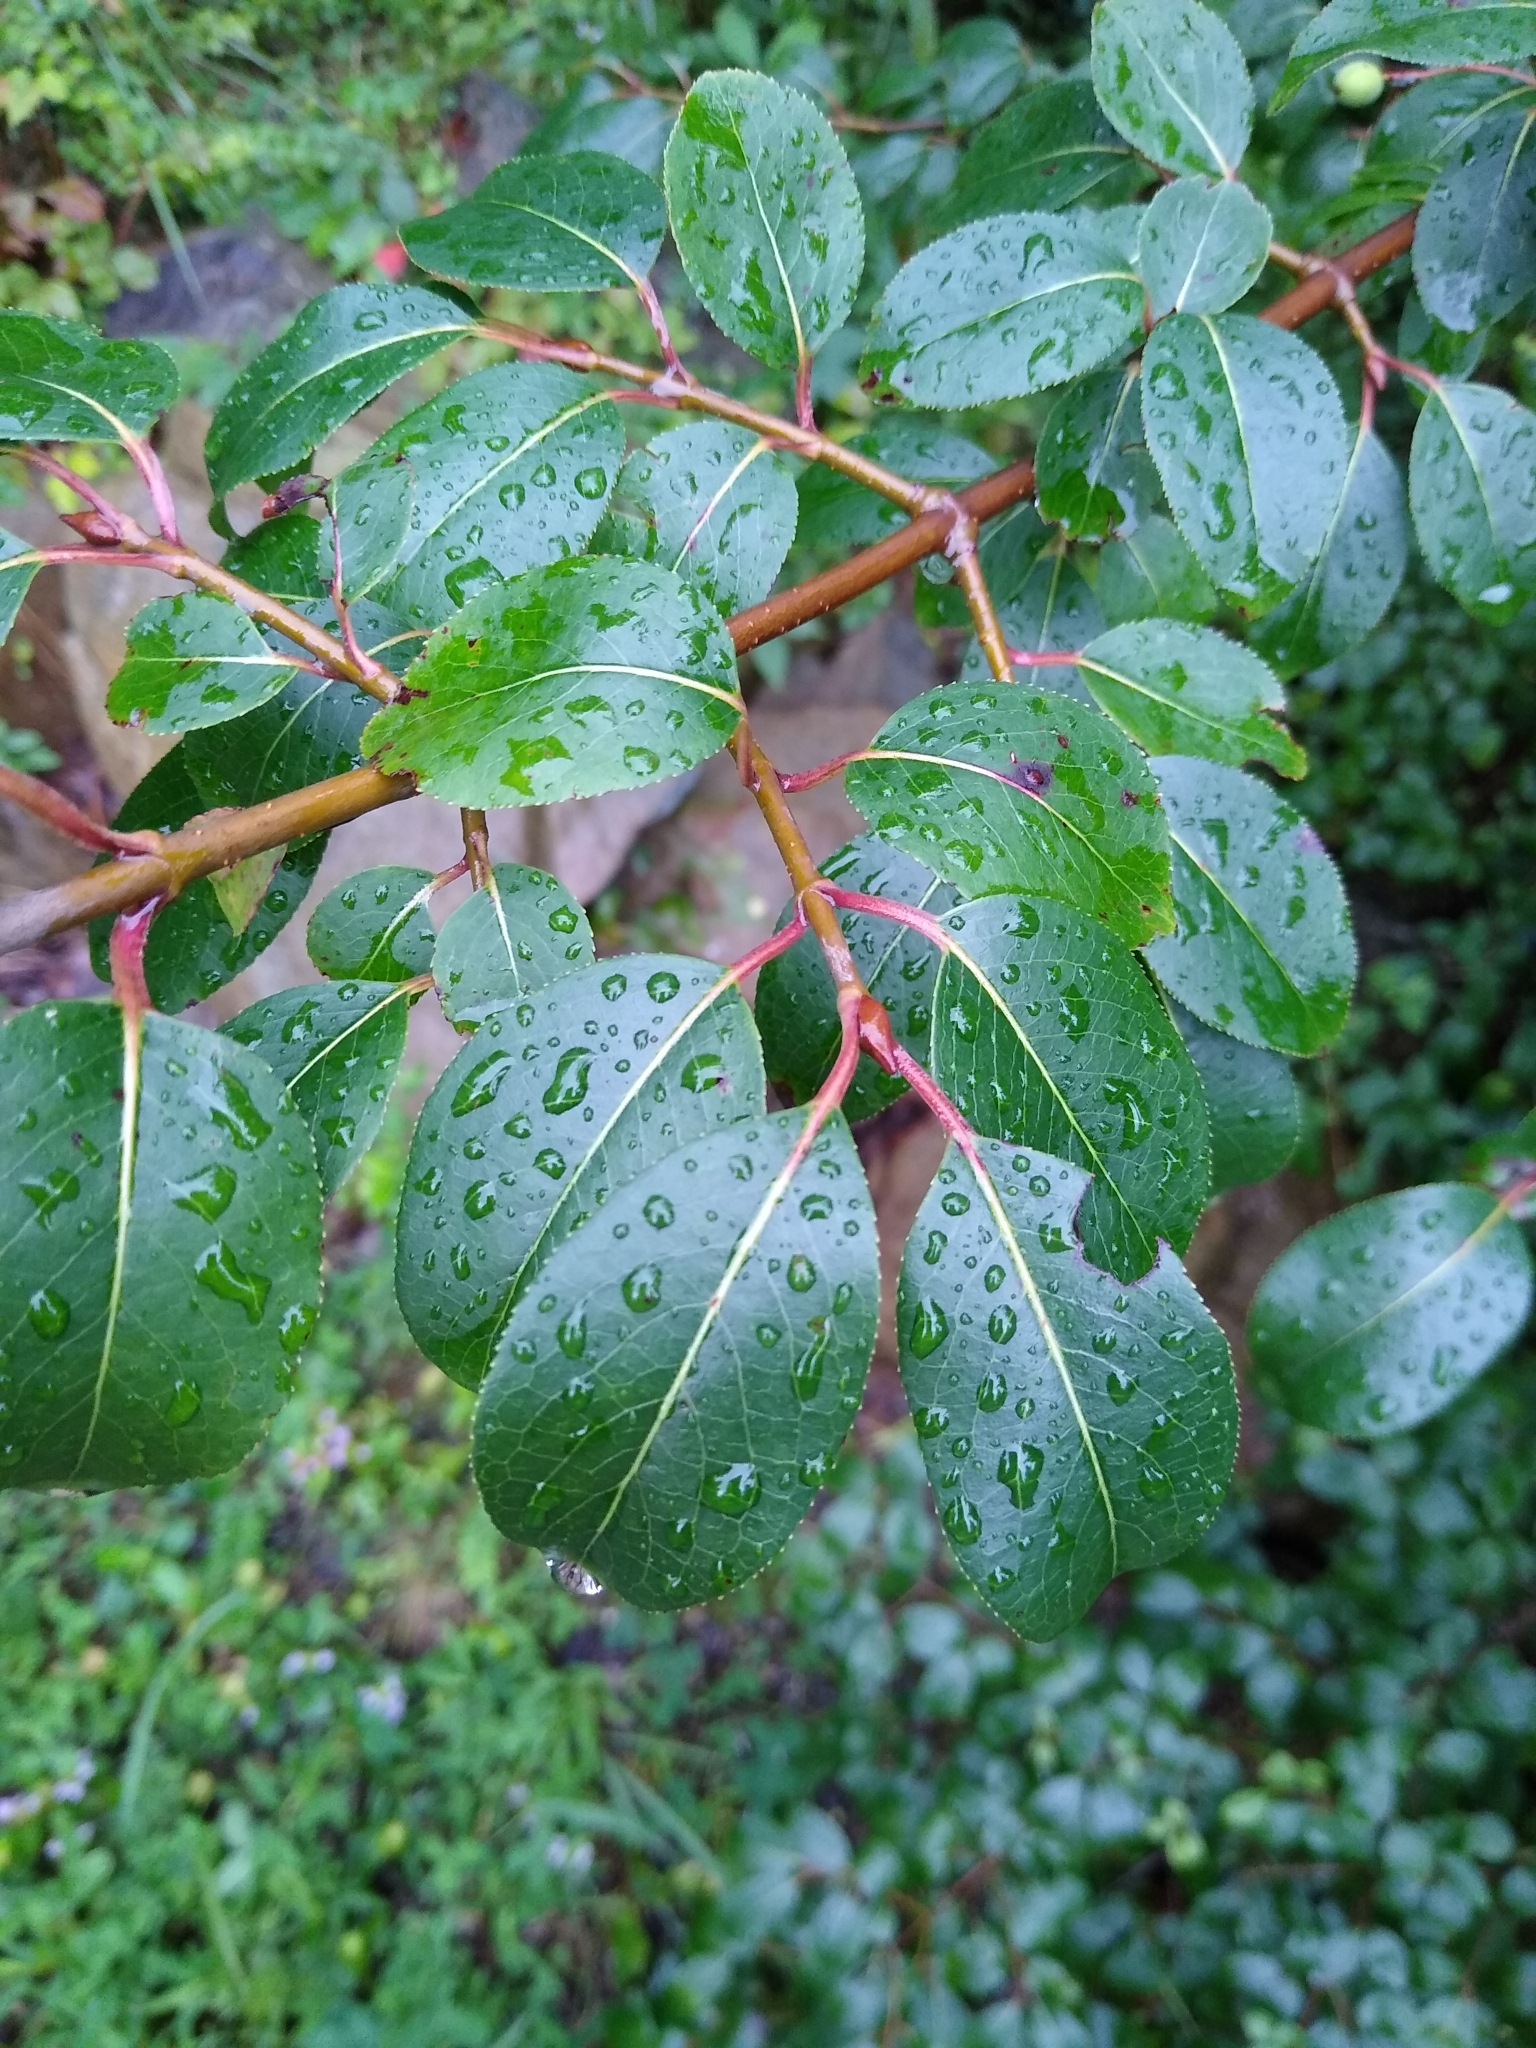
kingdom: Plantae
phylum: Tracheophyta
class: Magnoliopsida
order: Rosales
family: Elaeagnaceae
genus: Elaeagnus
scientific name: Elaeagnus umbellata
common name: Autumn olive
